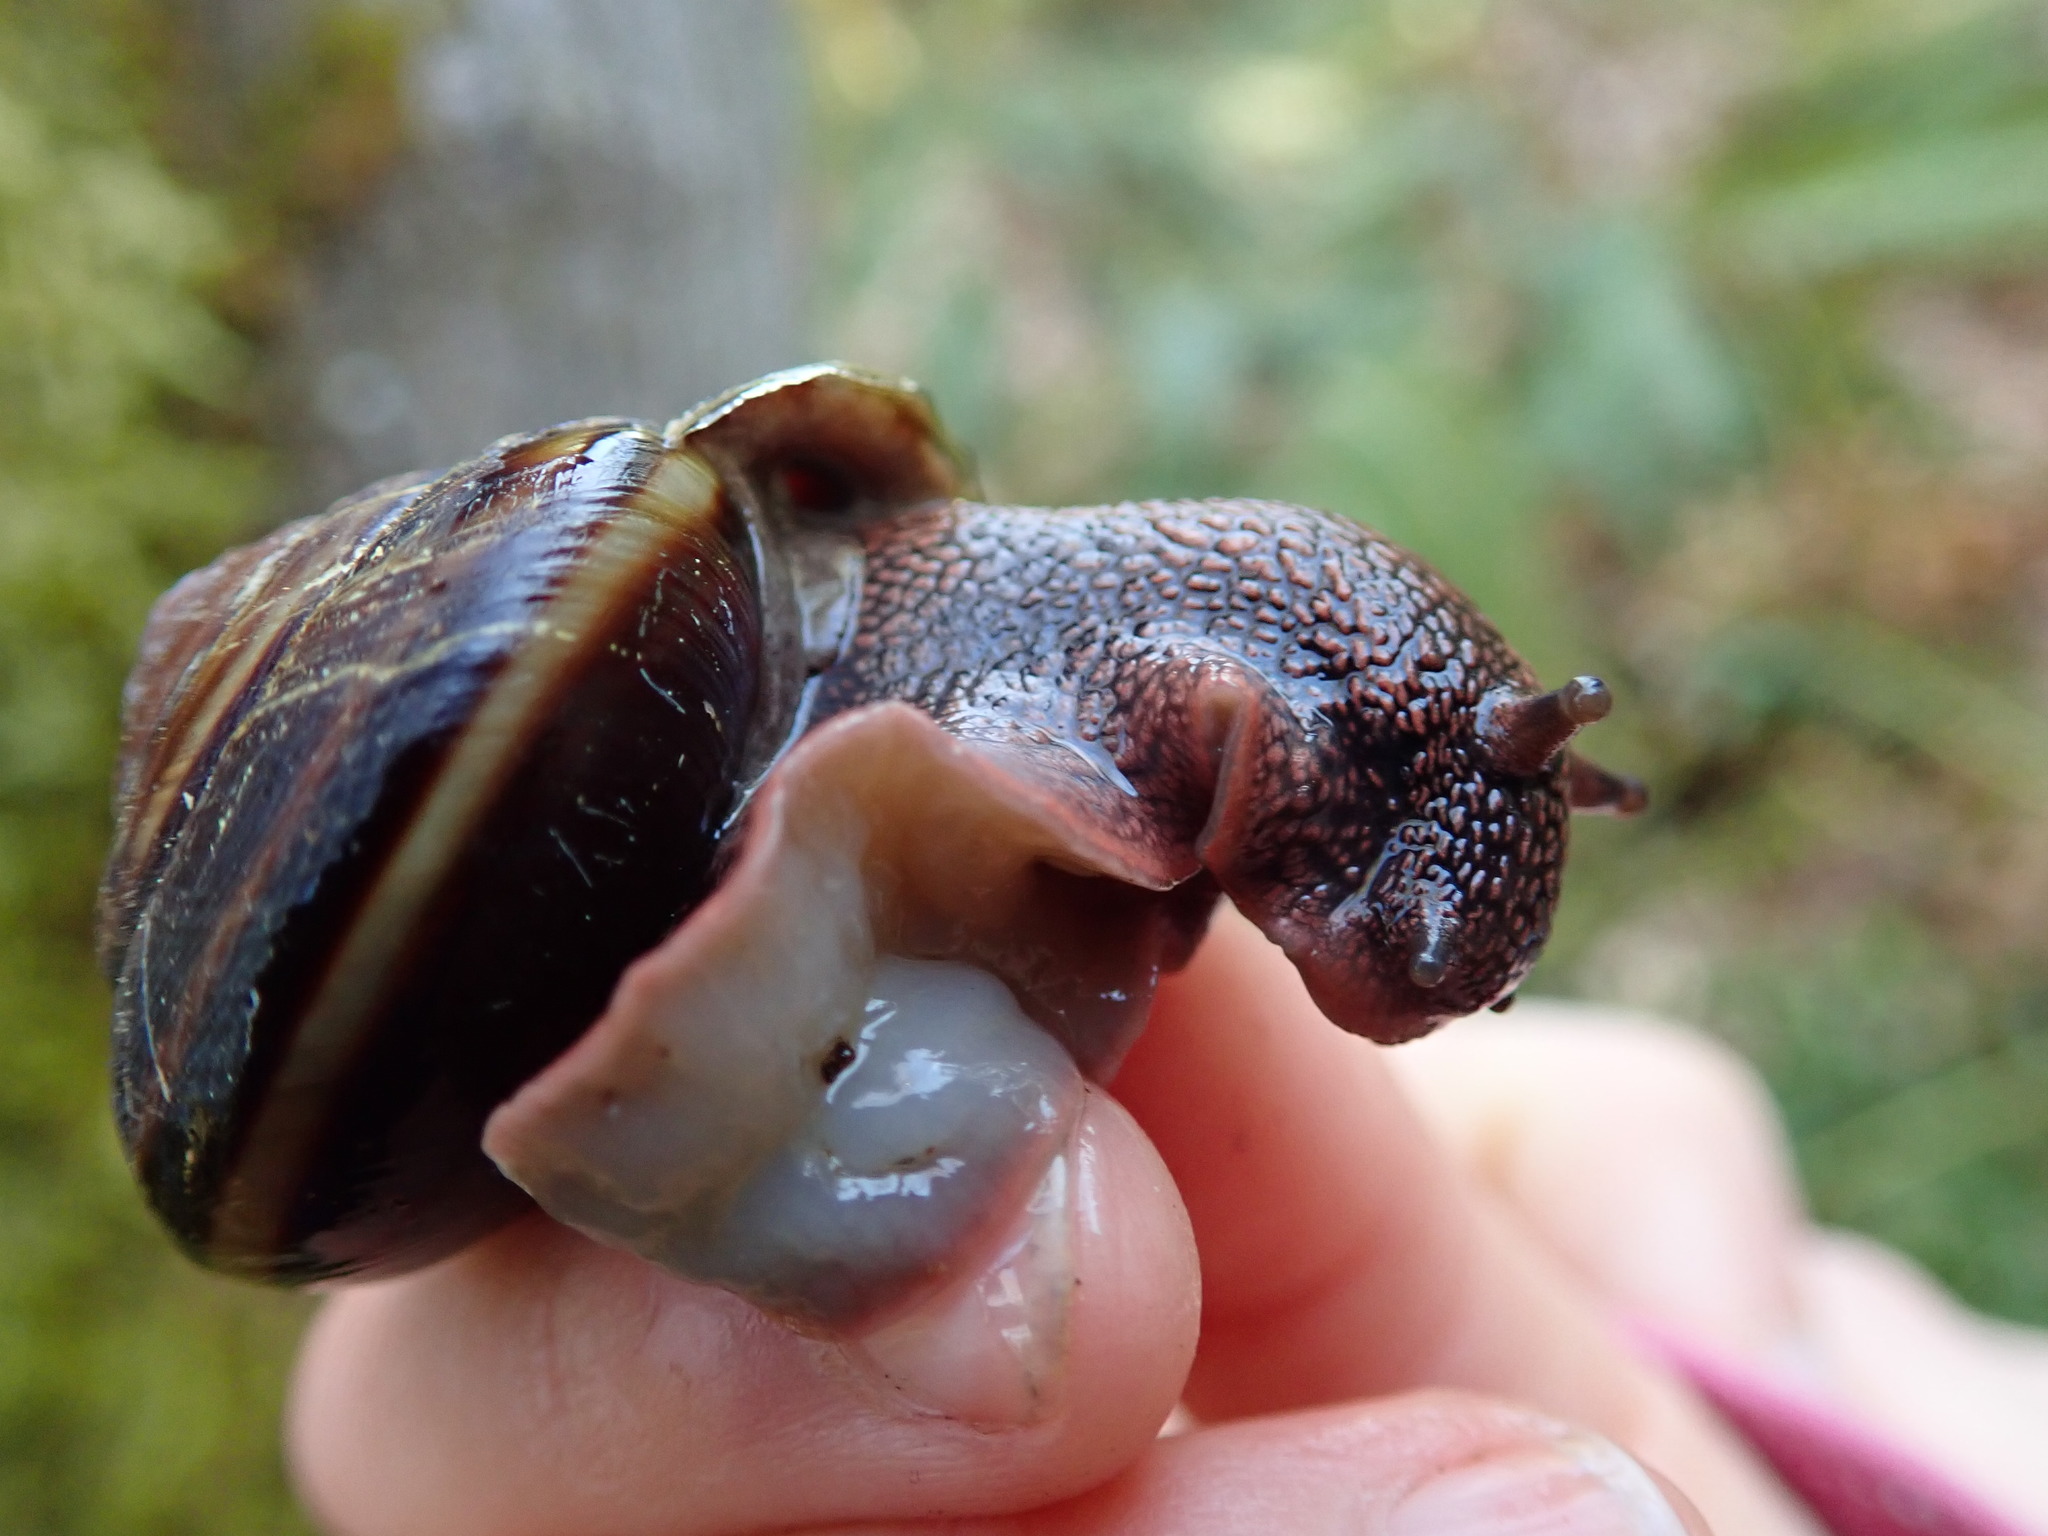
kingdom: Animalia
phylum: Mollusca
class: Gastropoda
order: Stylommatophora
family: Xanthonychidae
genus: Monadenia
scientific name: Monadenia fidelis
